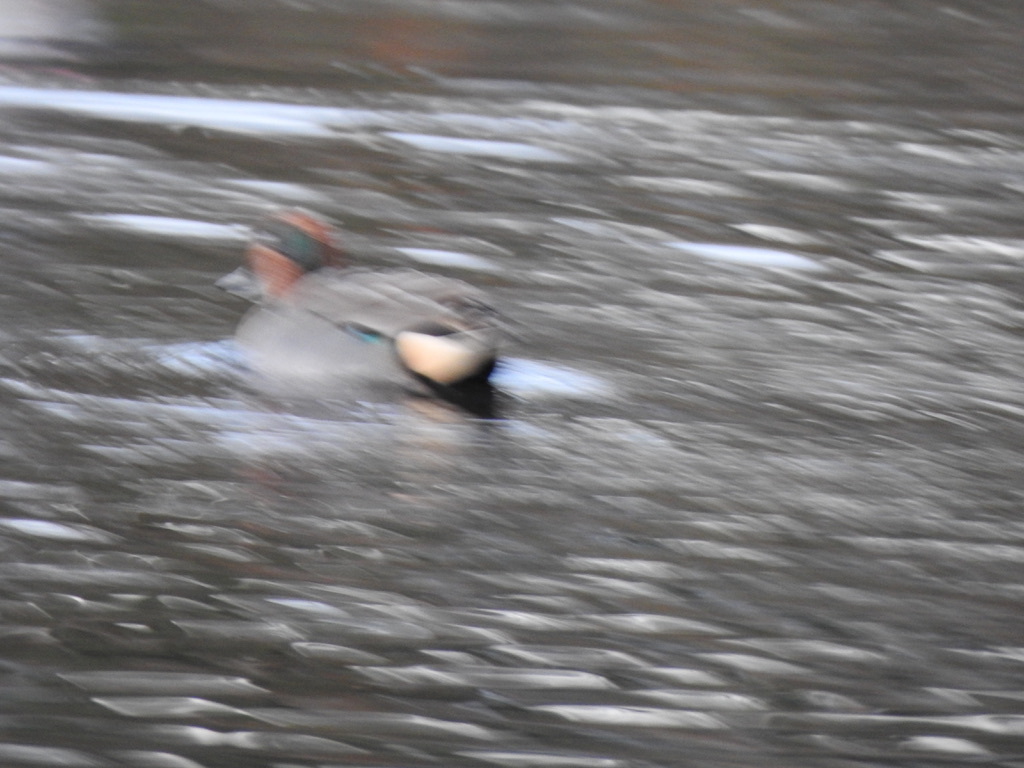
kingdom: Animalia
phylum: Chordata
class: Aves
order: Anseriformes
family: Anatidae
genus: Anas
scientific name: Anas crecca
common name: Eurasian teal
